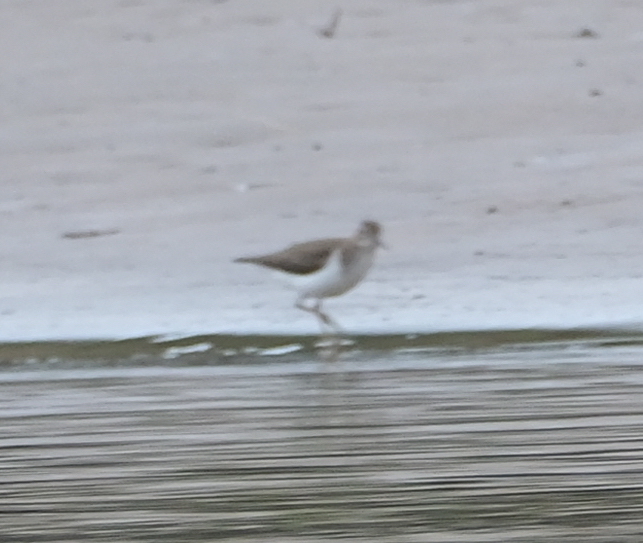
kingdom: Animalia
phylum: Chordata
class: Aves
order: Charadriiformes
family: Scolopacidae
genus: Actitis
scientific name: Actitis macularius
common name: Spotted sandpiper
